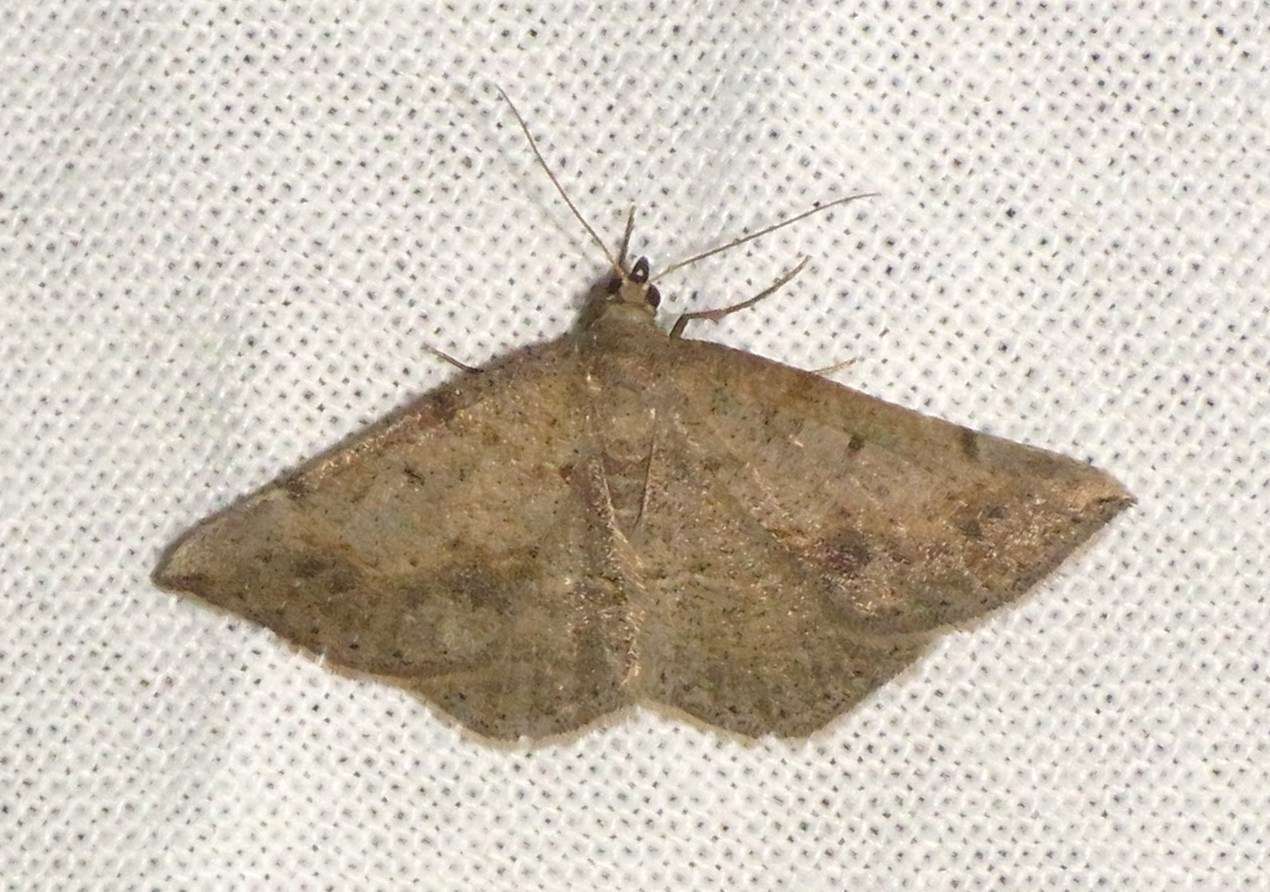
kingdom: Animalia
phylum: Arthropoda
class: Insecta
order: Lepidoptera
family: Geometridae
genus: Taxeotis
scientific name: Taxeotis intextata
